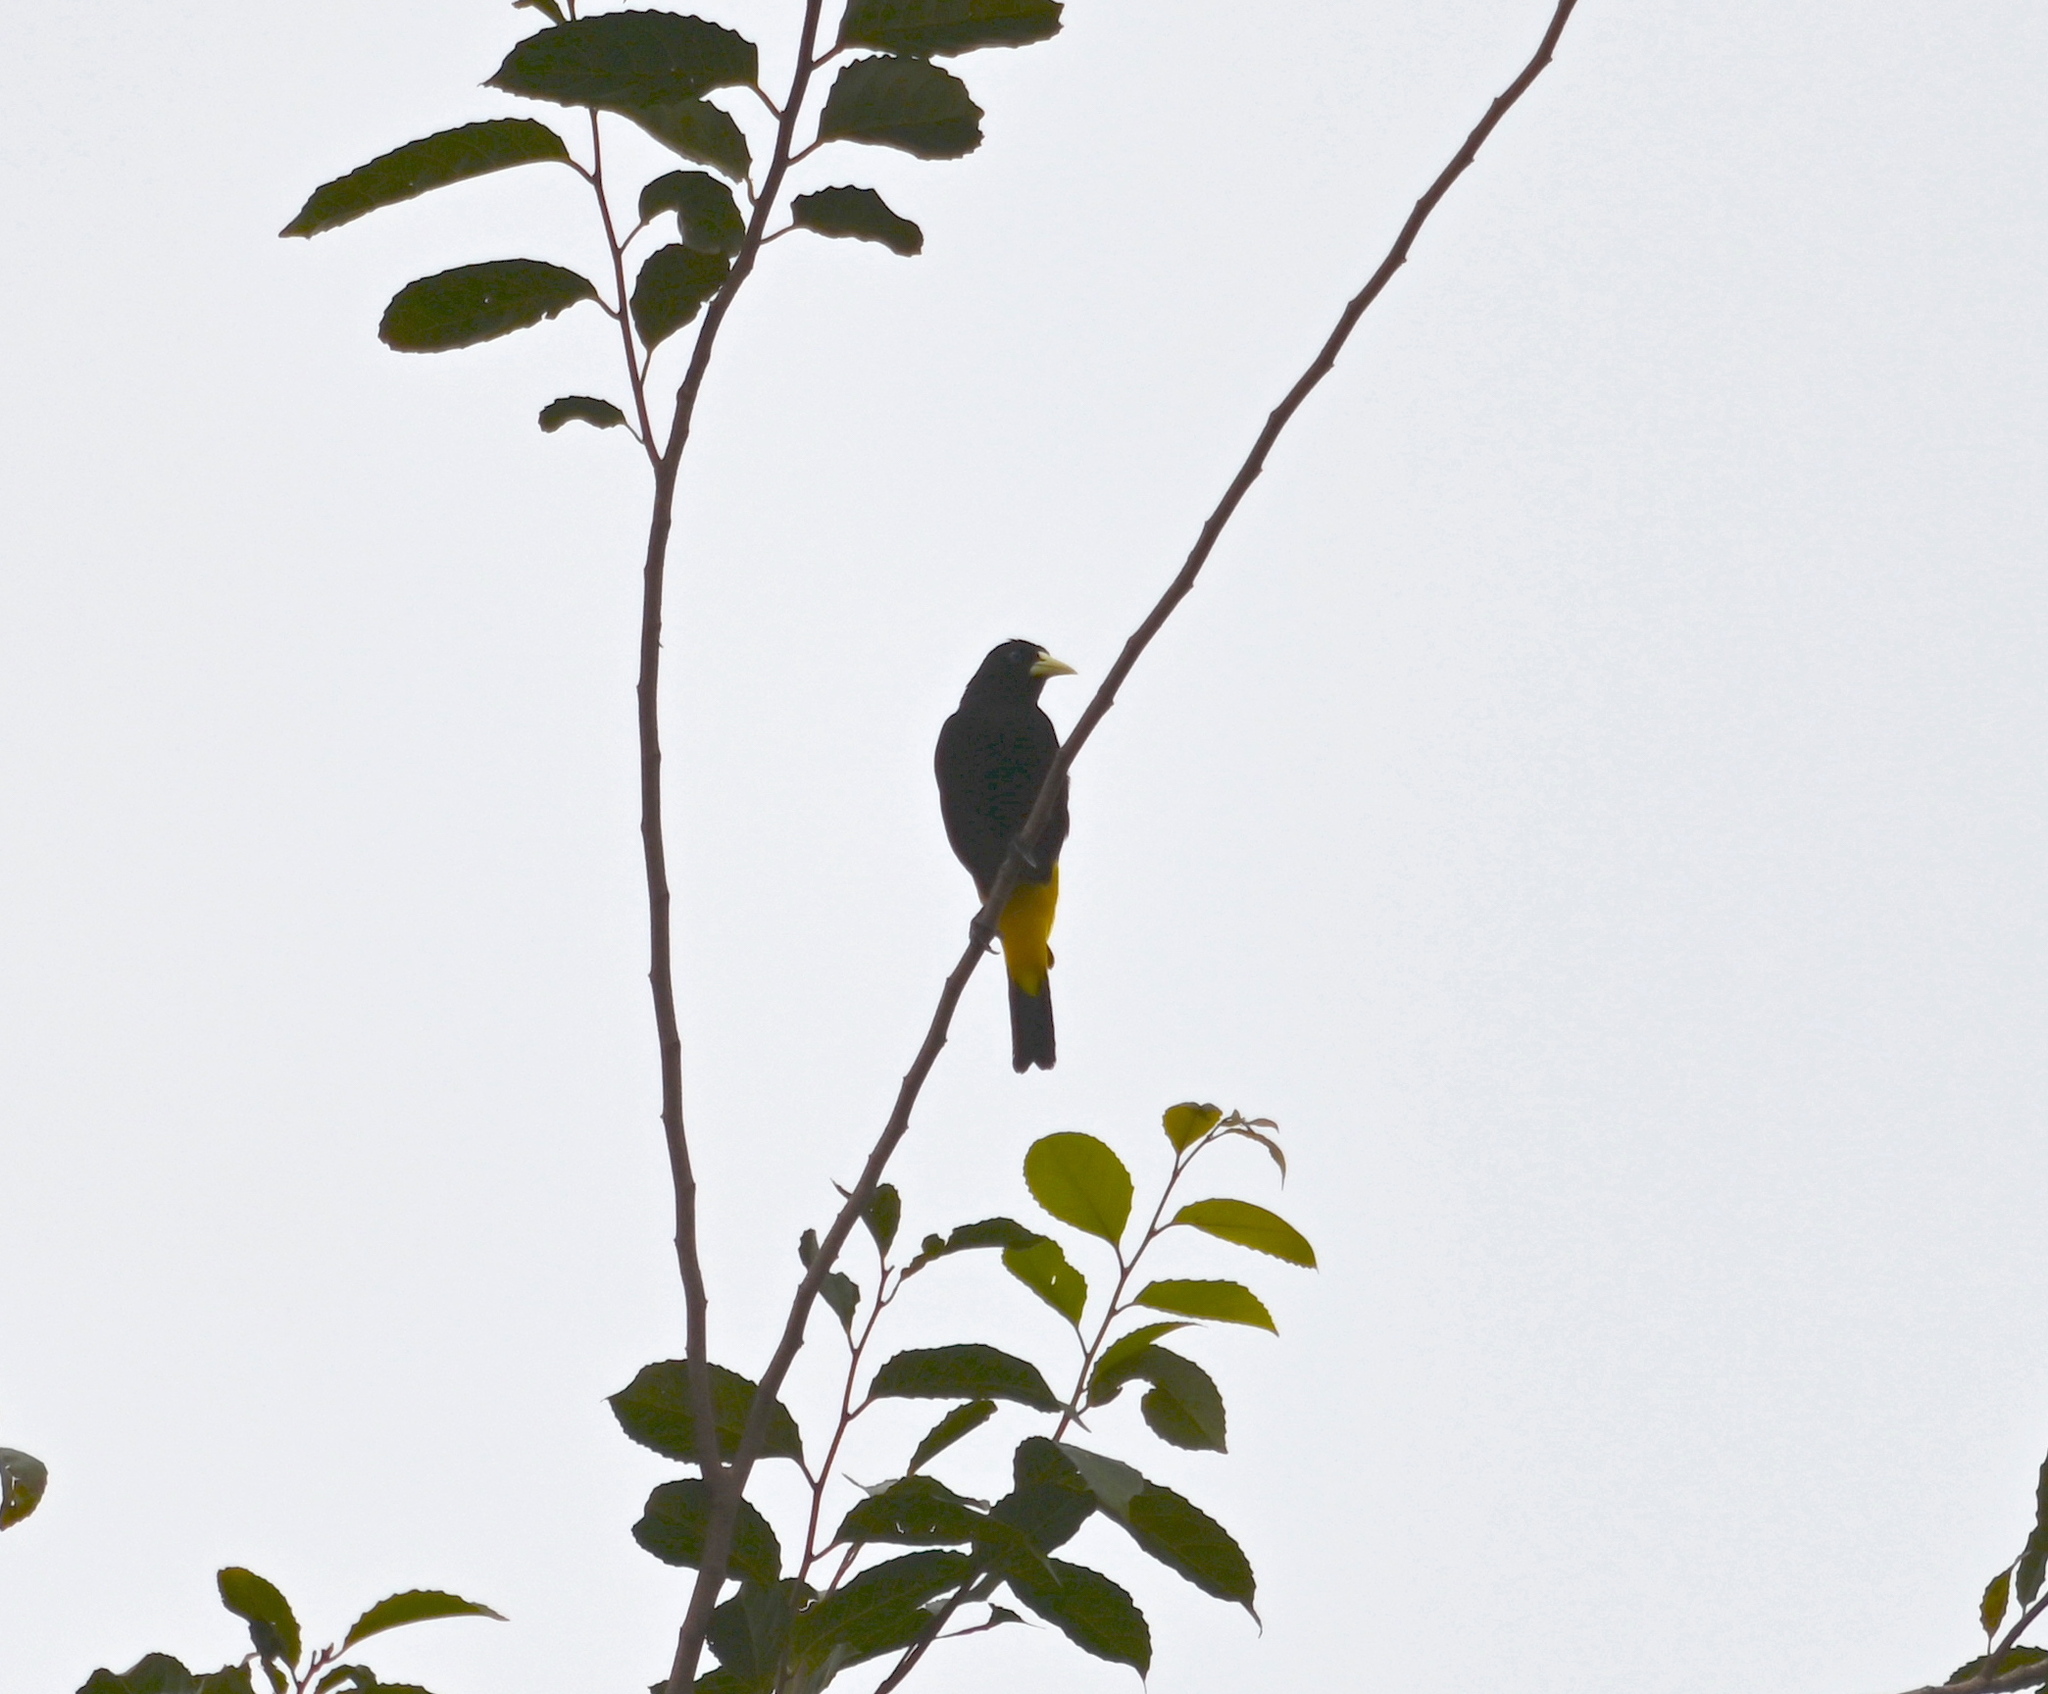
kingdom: Animalia
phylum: Chordata
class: Aves
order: Passeriformes
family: Icteridae
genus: Cacicus
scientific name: Cacicus cela
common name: Yellow-rumped cacique
